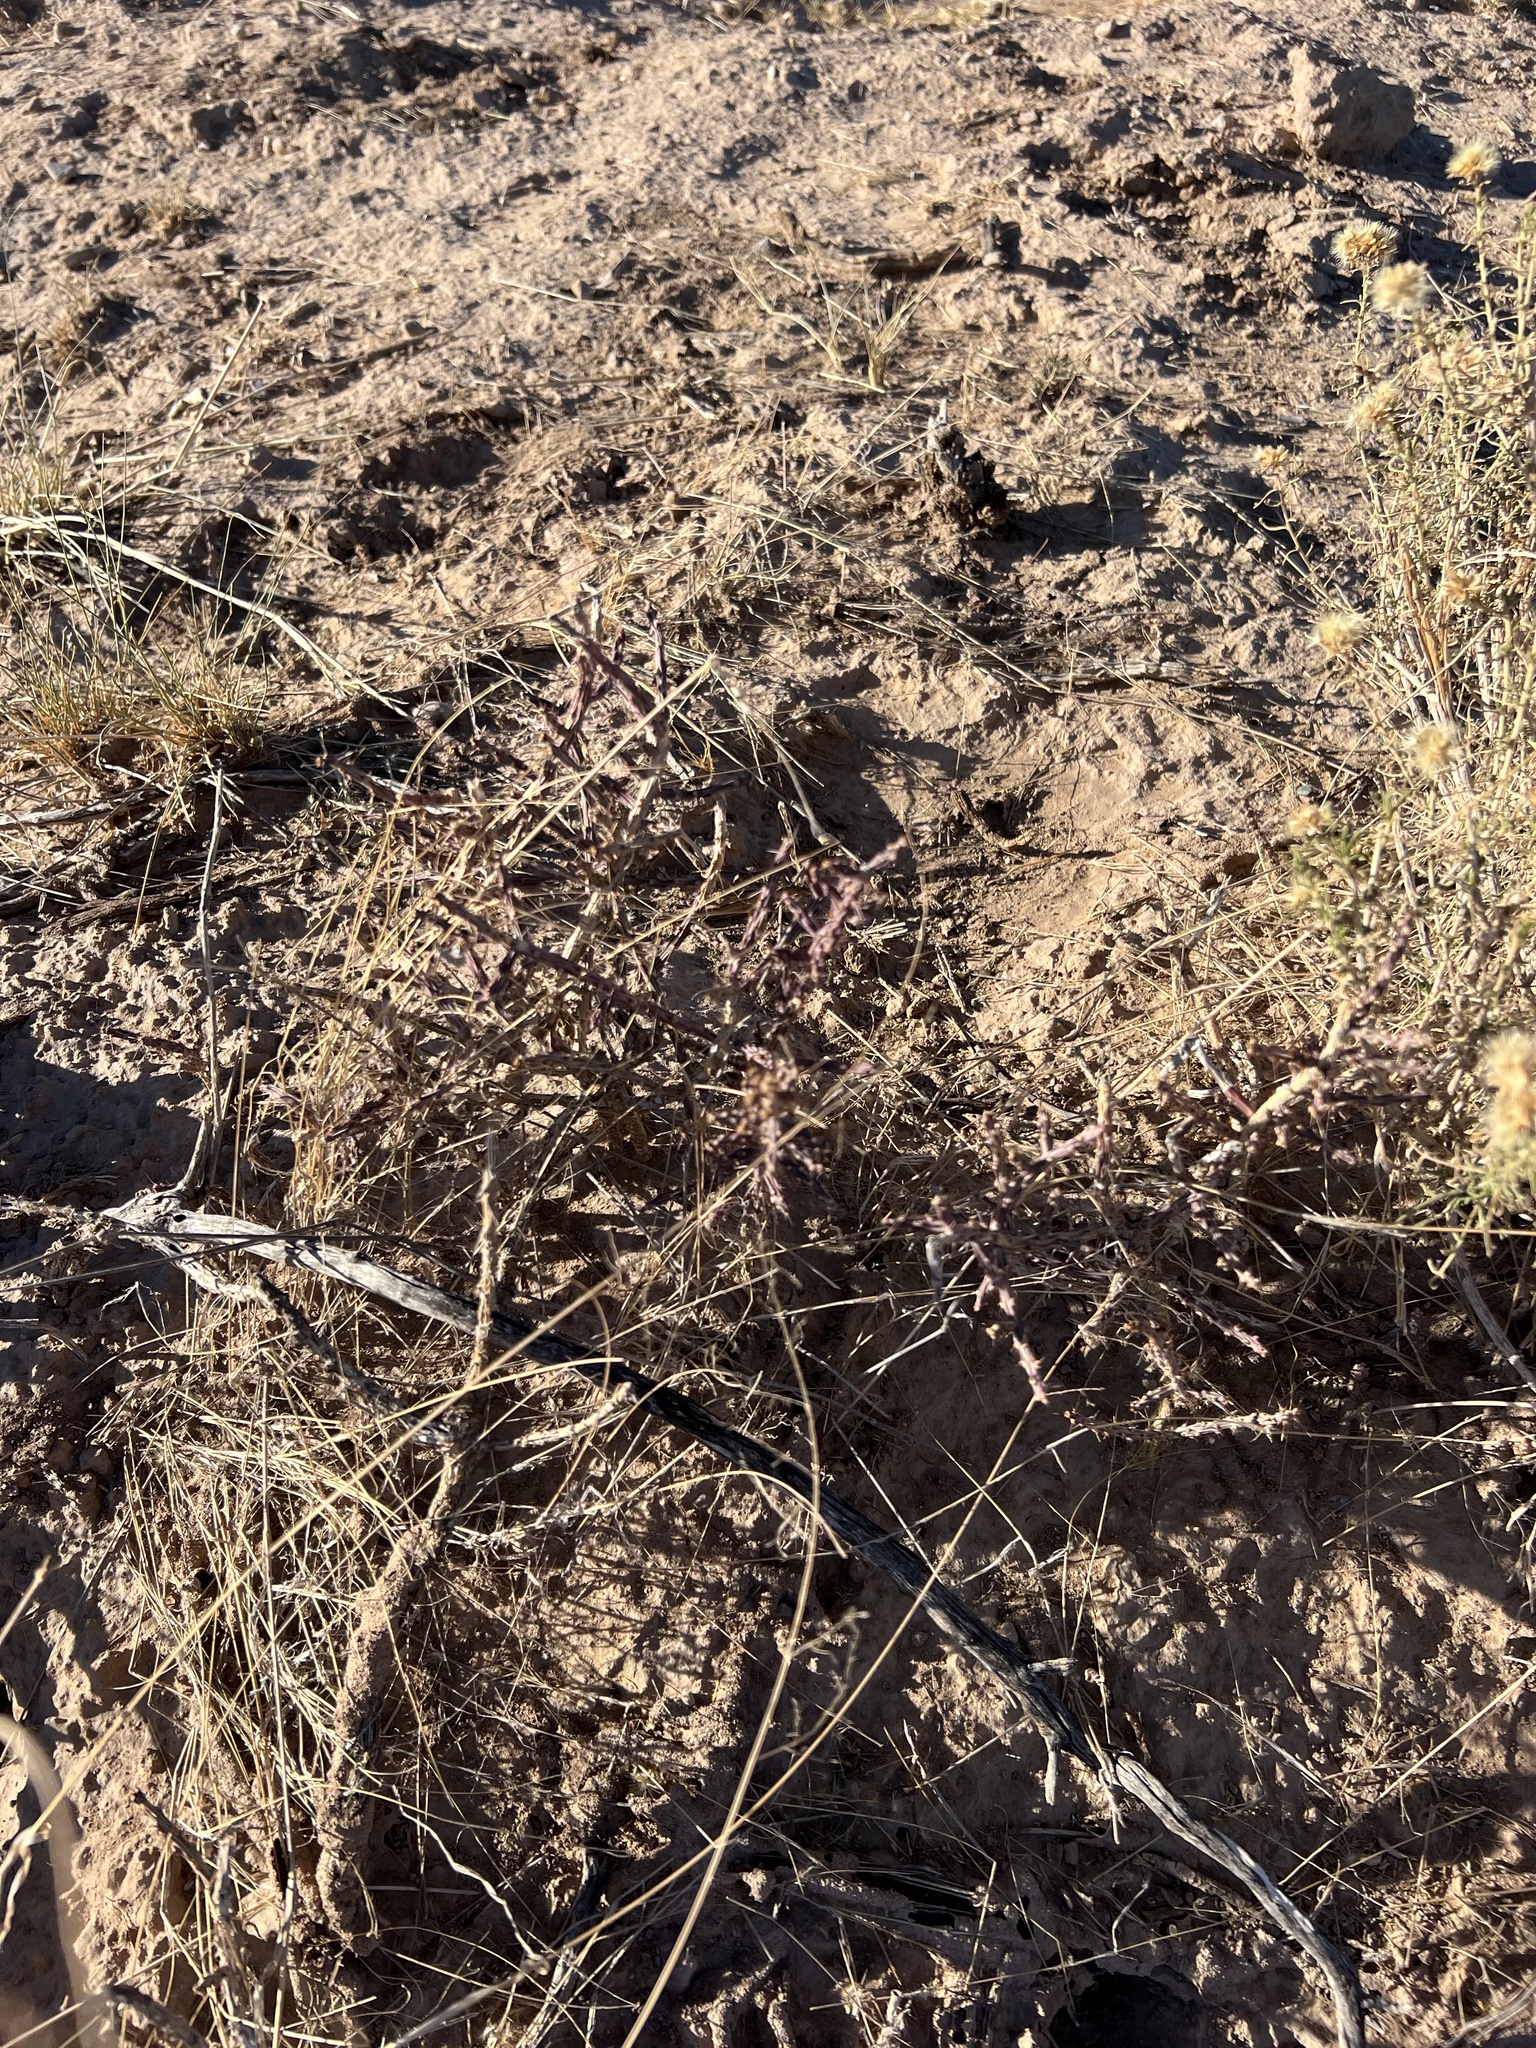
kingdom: Plantae
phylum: Tracheophyta
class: Magnoliopsida
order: Caryophyllales
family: Cactaceae
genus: Cylindropuntia
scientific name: Cylindropuntia leptocaulis
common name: Christmas cactus
